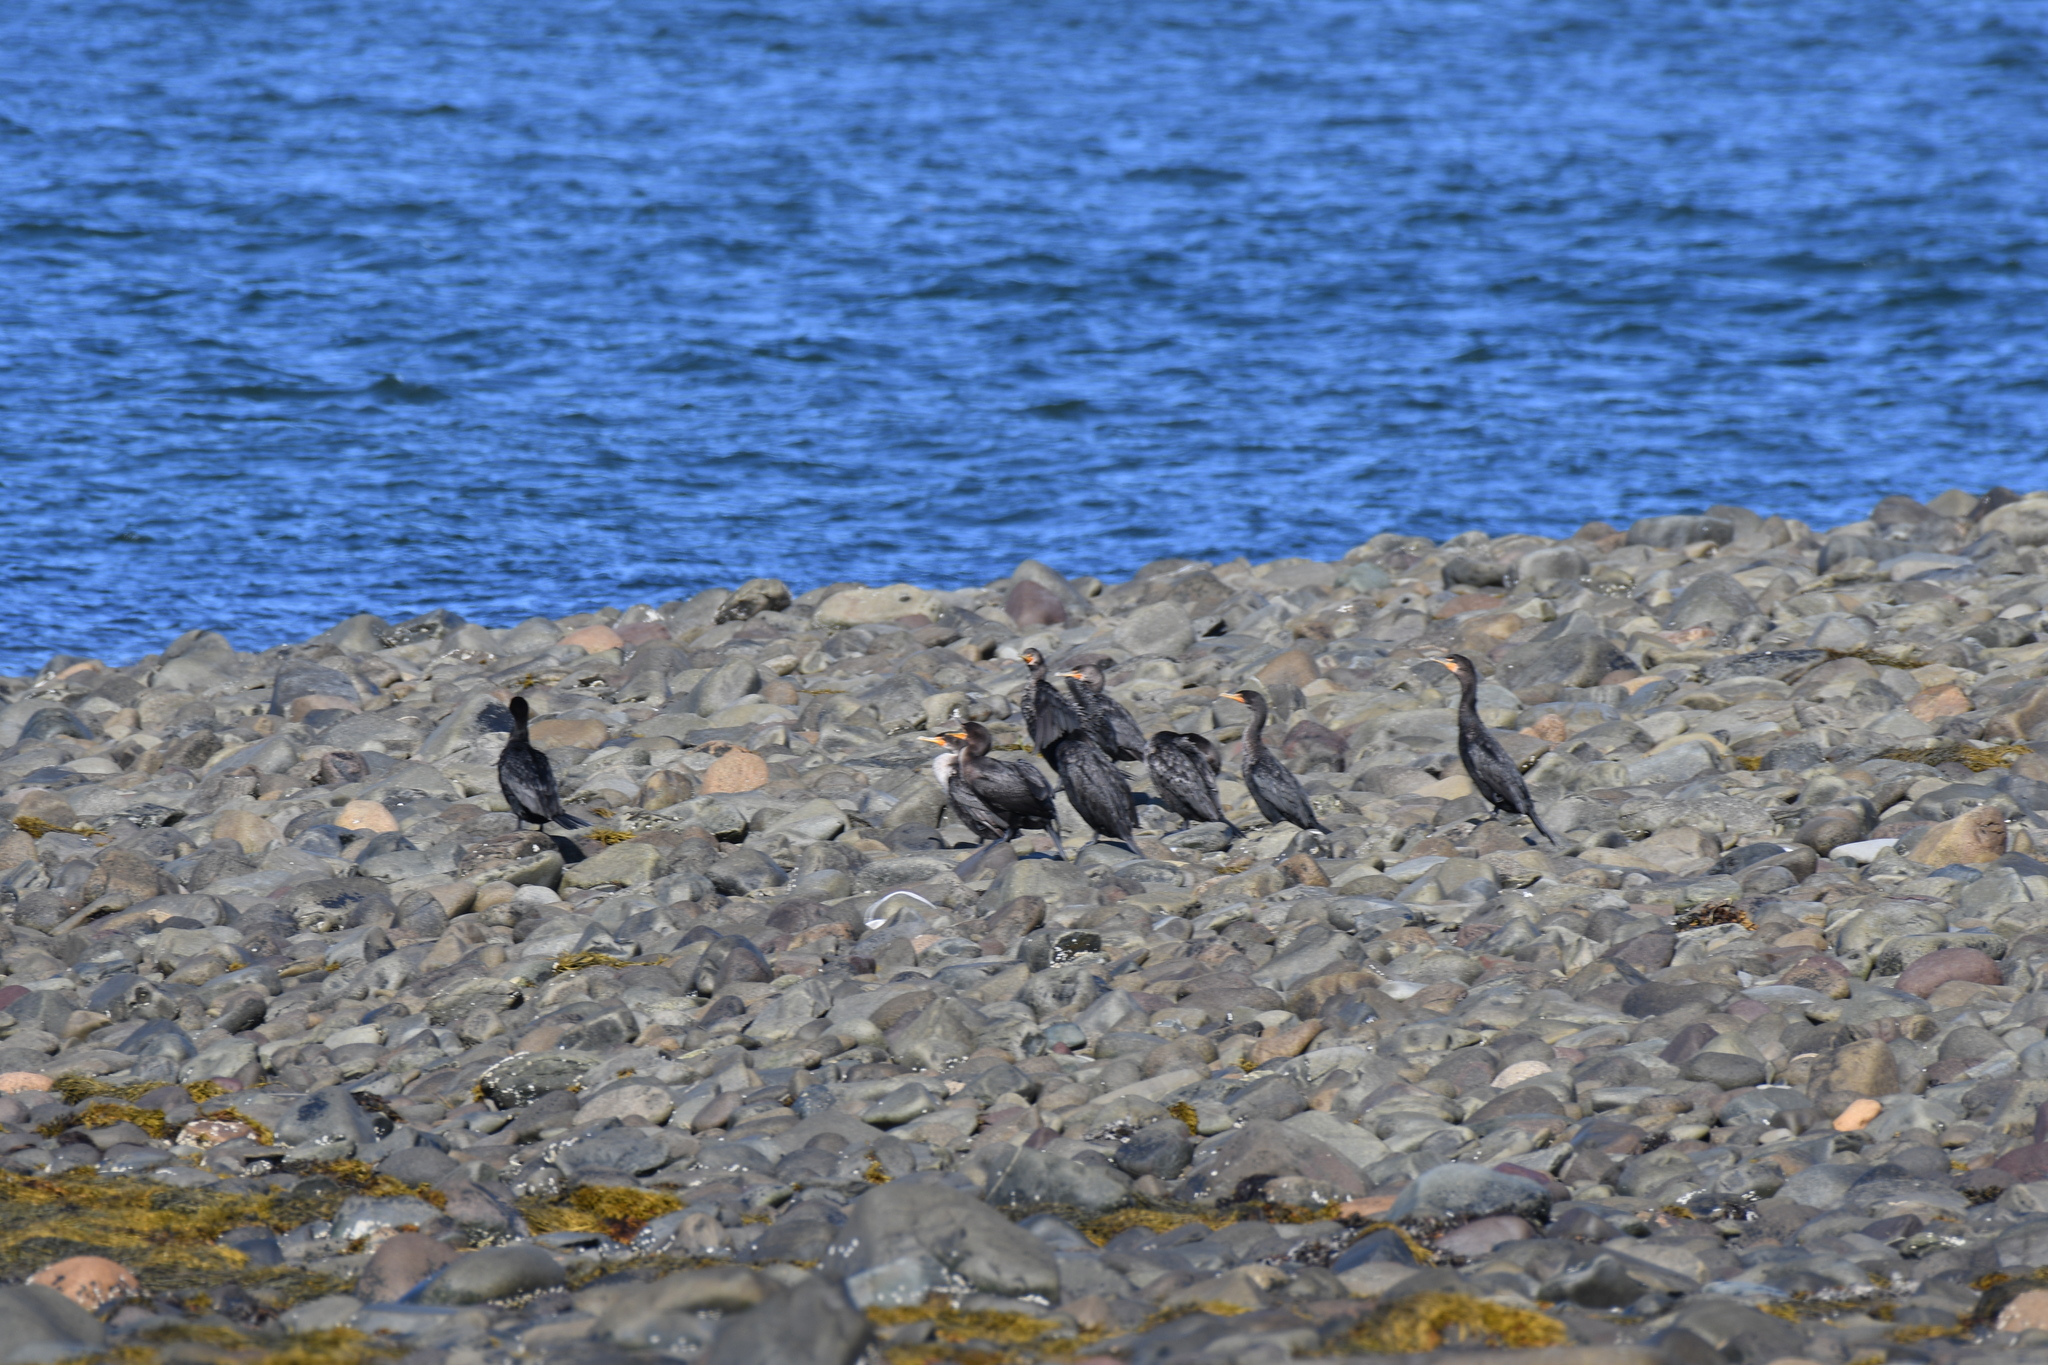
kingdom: Animalia
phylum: Chordata
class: Aves
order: Suliformes
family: Phalacrocoracidae
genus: Phalacrocorax
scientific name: Phalacrocorax auritus
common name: Double-crested cormorant
